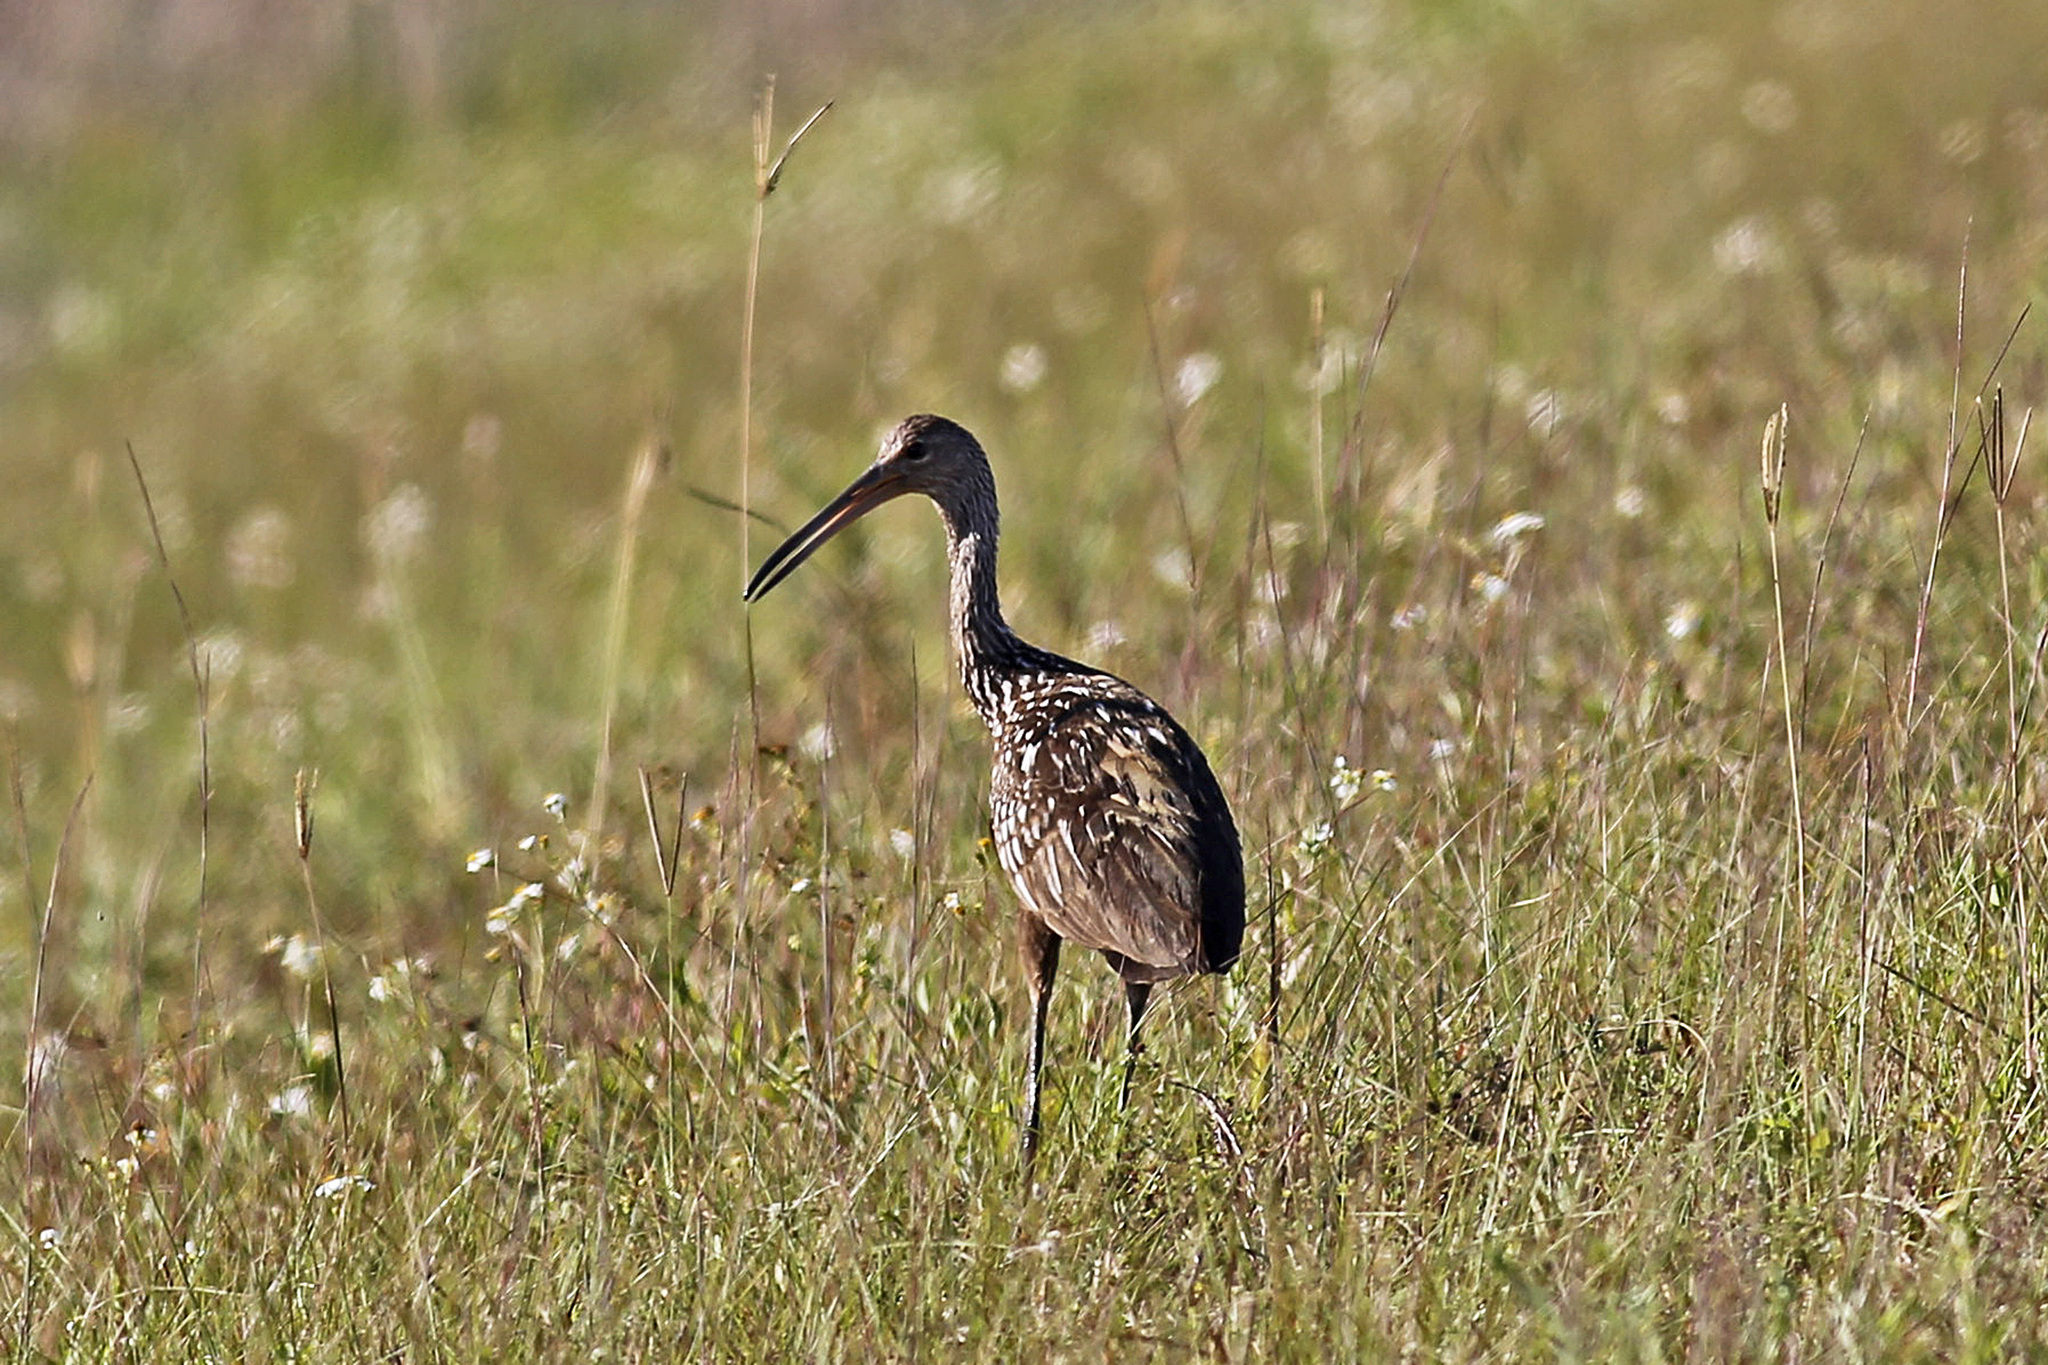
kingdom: Animalia
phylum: Chordata
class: Aves
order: Gruiformes
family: Aramidae
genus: Aramus
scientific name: Aramus guarauna
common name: Limpkin
